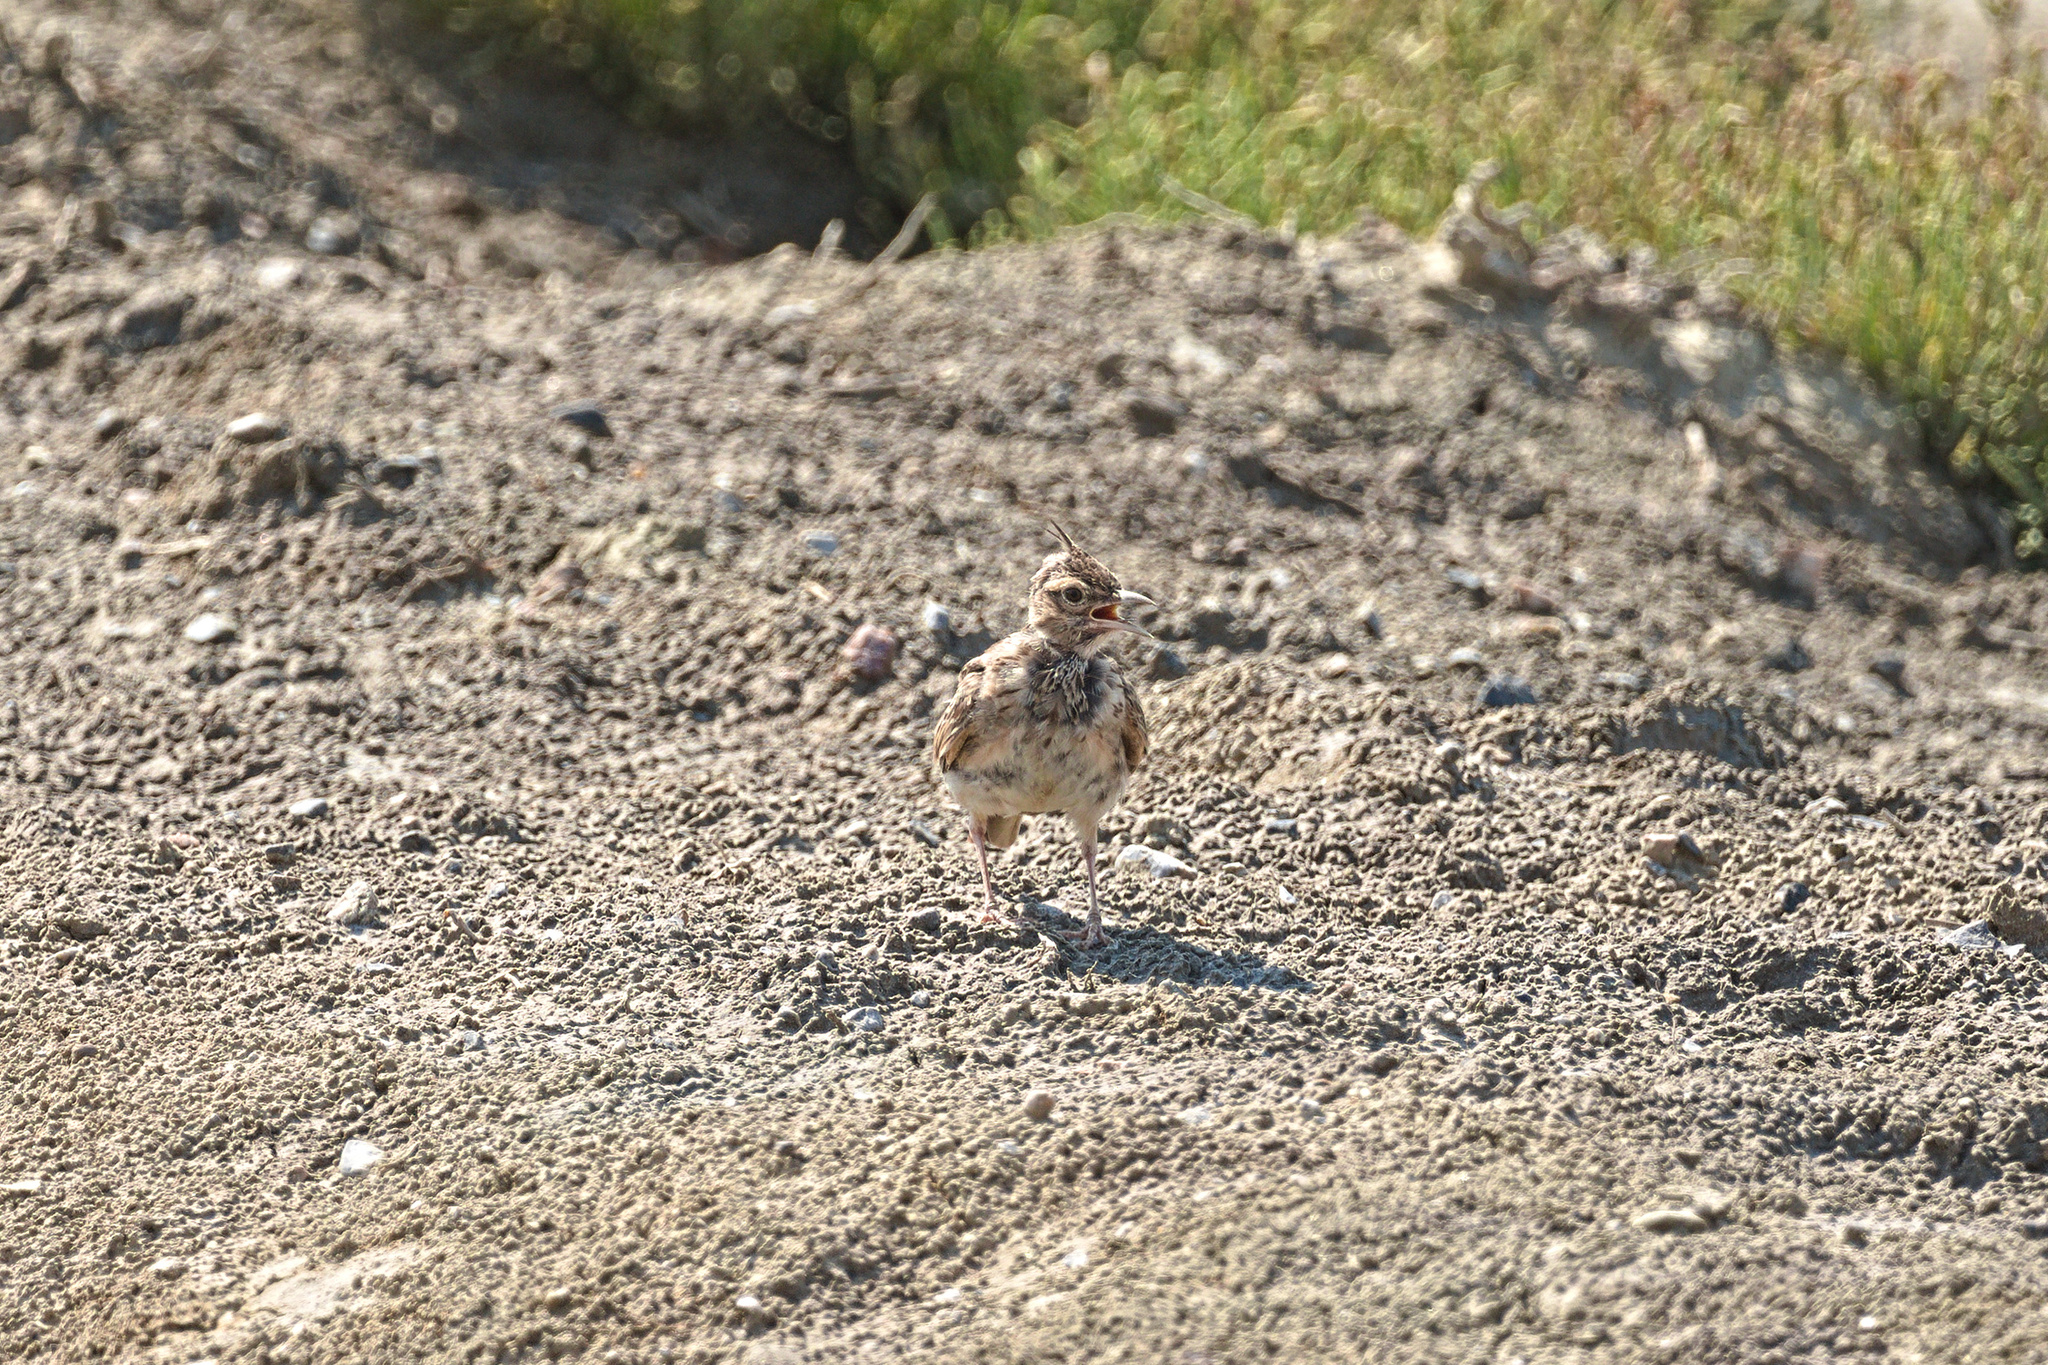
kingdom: Animalia
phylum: Chordata
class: Aves
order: Passeriformes
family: Alaudidae
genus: Galerida
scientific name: Galerida cristata
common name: Crested lark
